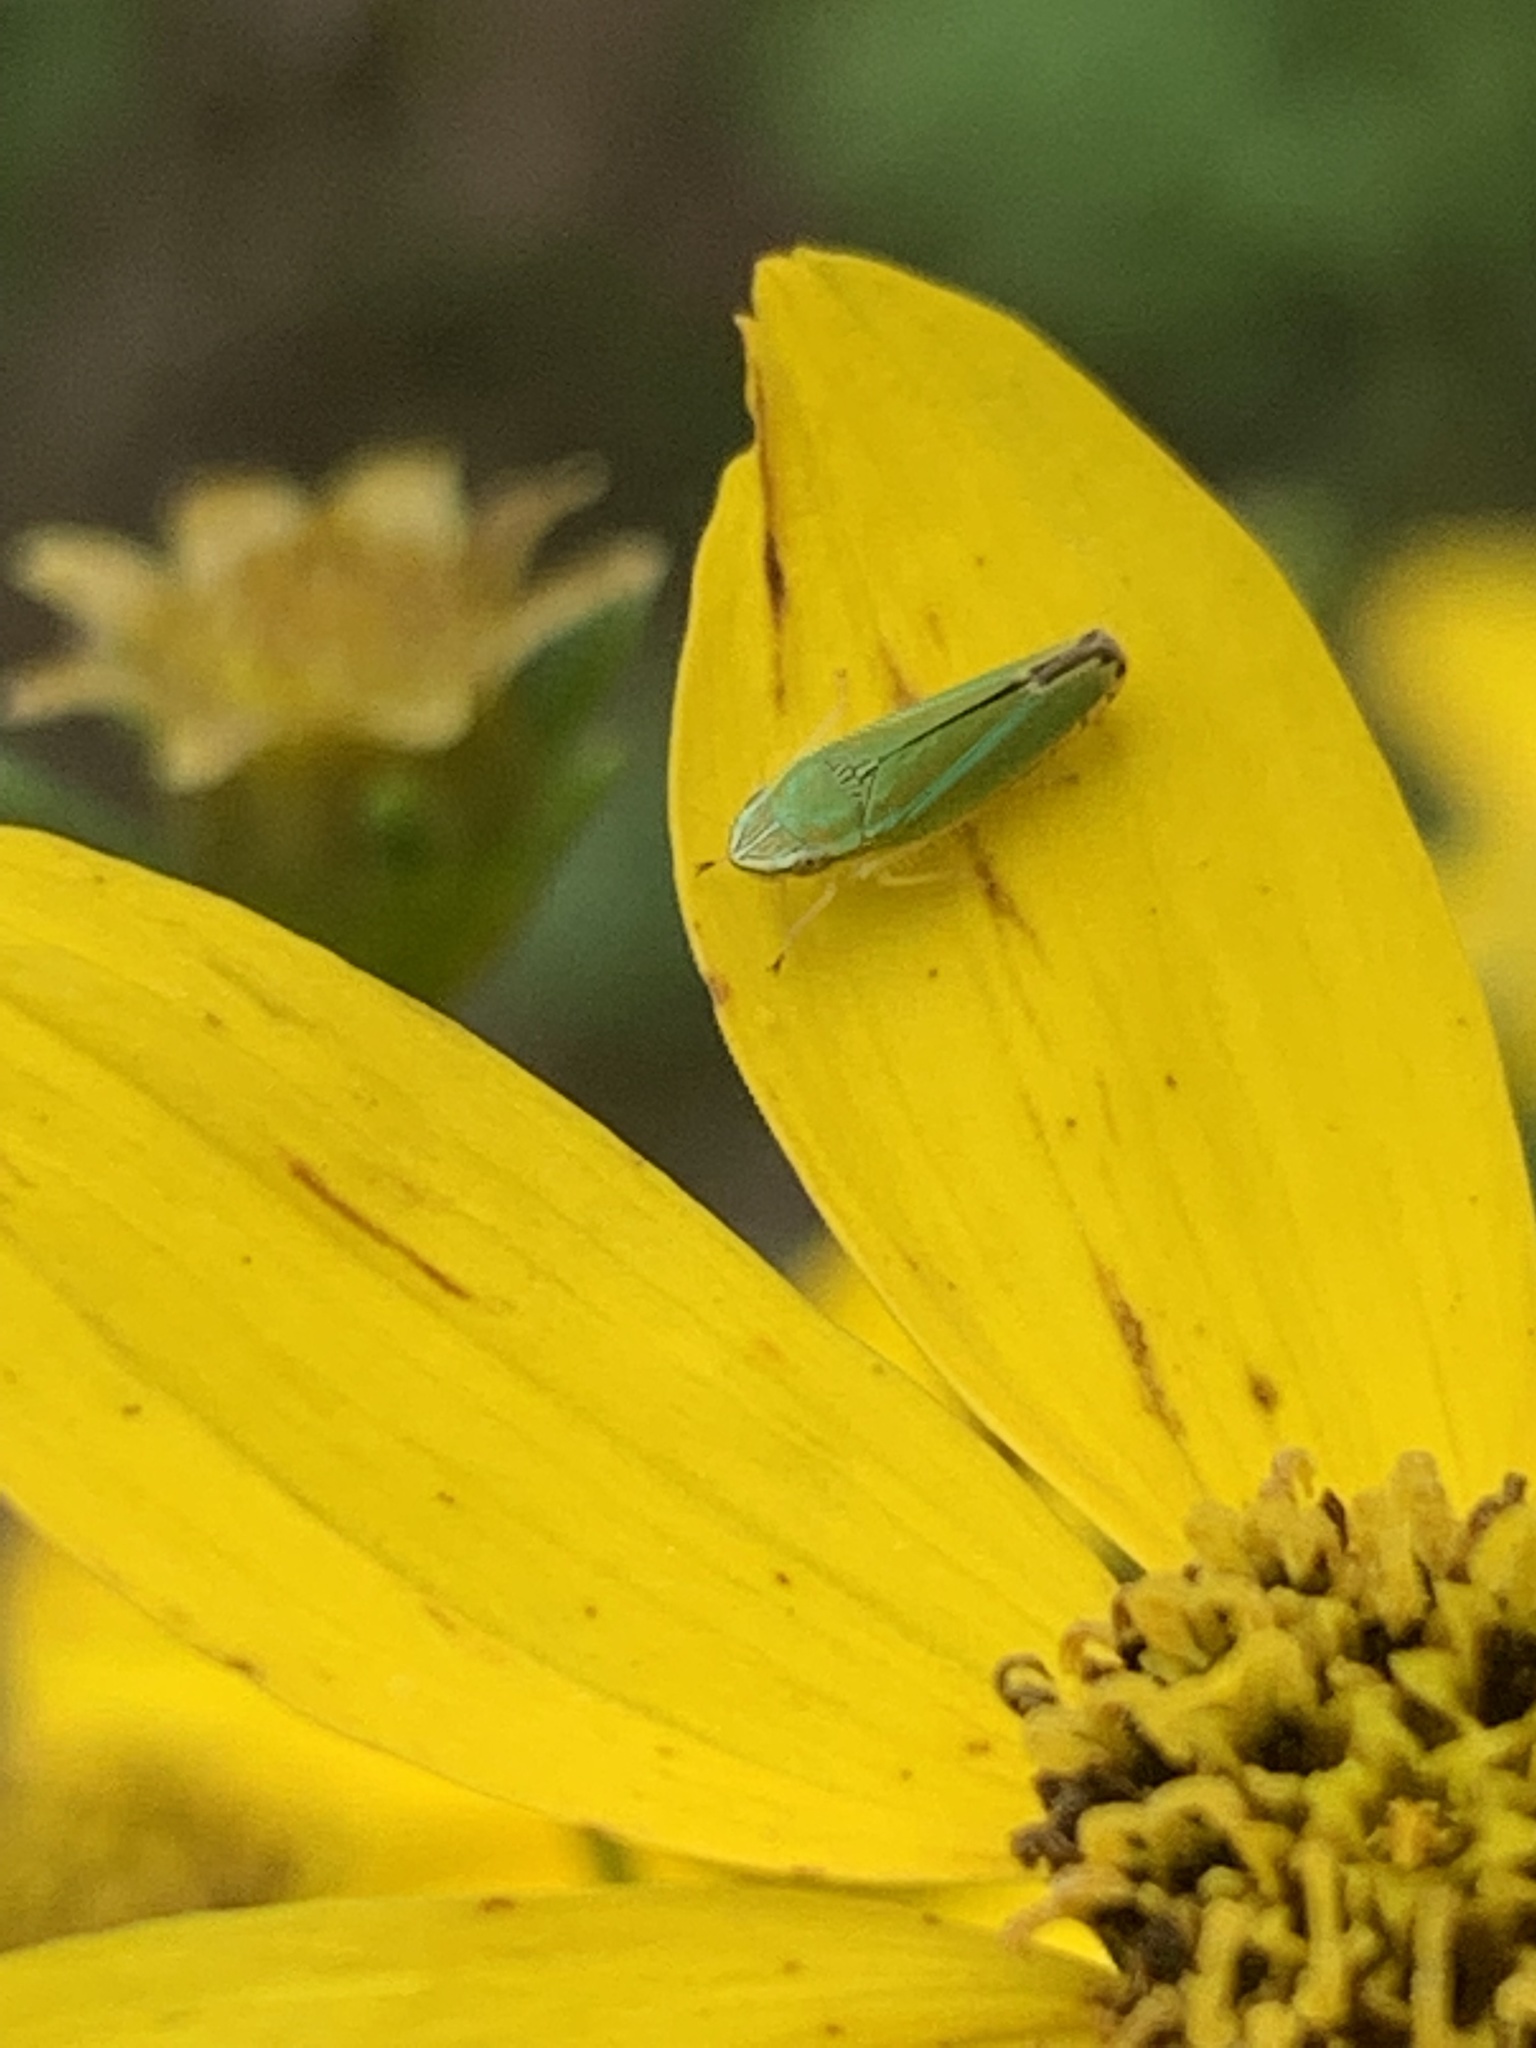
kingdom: Animalia
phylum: Arthropoda
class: Insecta
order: Hemiptera
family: Cicadellidae
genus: Graphocephala
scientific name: Graphocephala versuta
